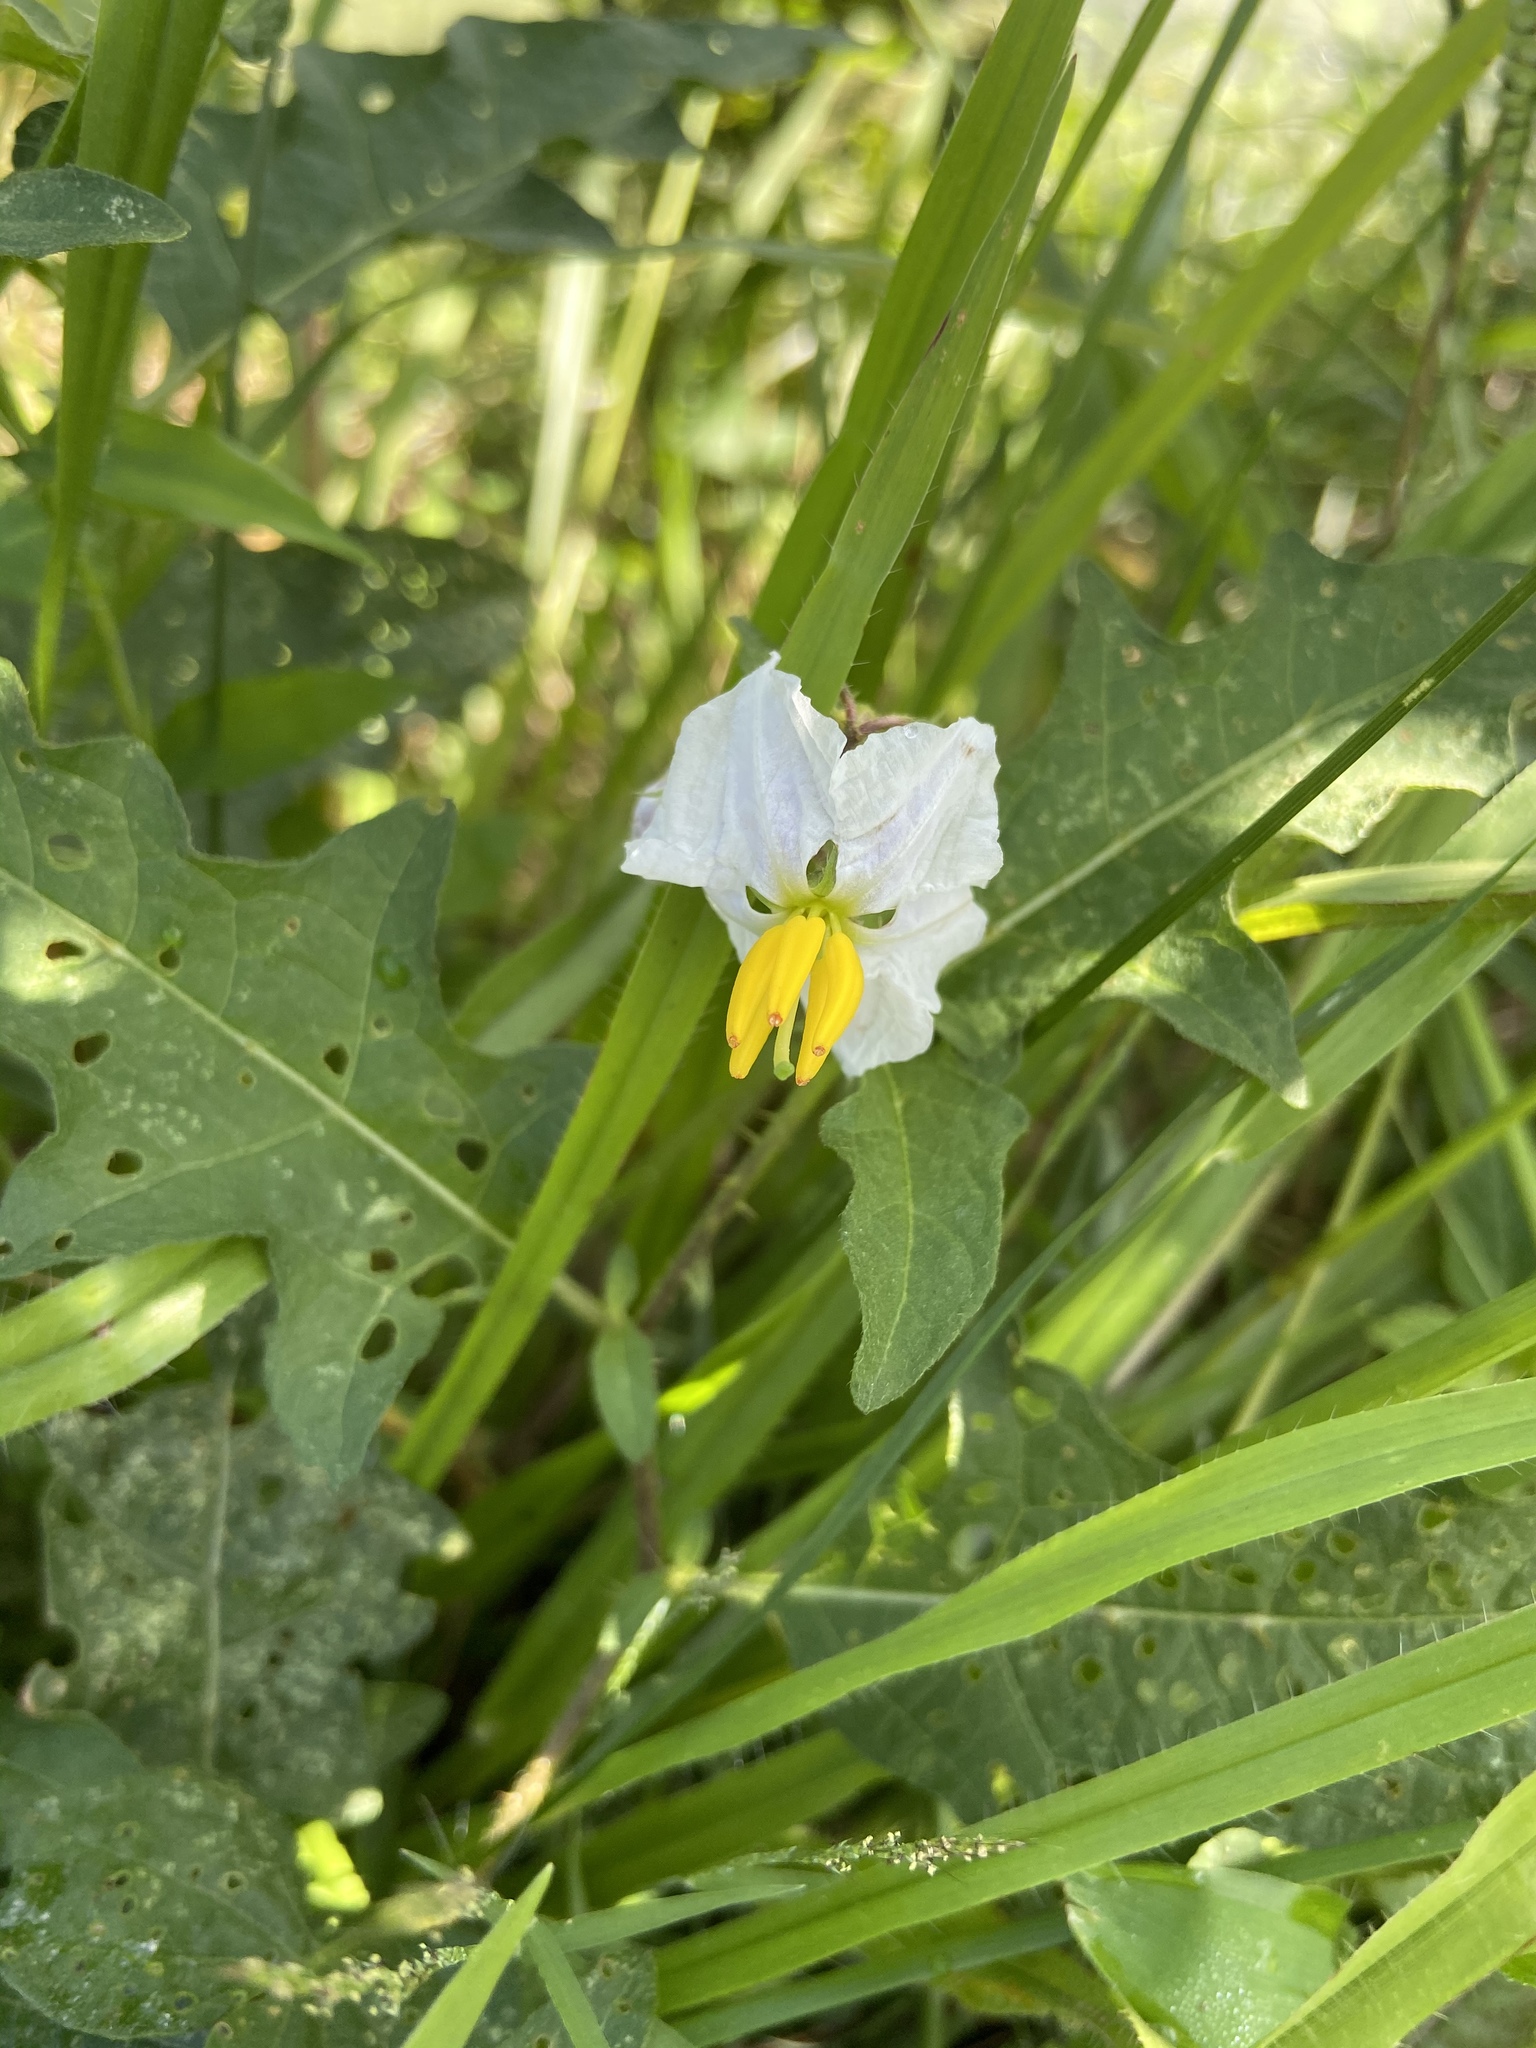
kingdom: Plantae
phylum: Tracheophyta
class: Magnoliopsida
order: Solanales
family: Solanaceae
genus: Solanum
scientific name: Solanum carolinense
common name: Horse-nettle
